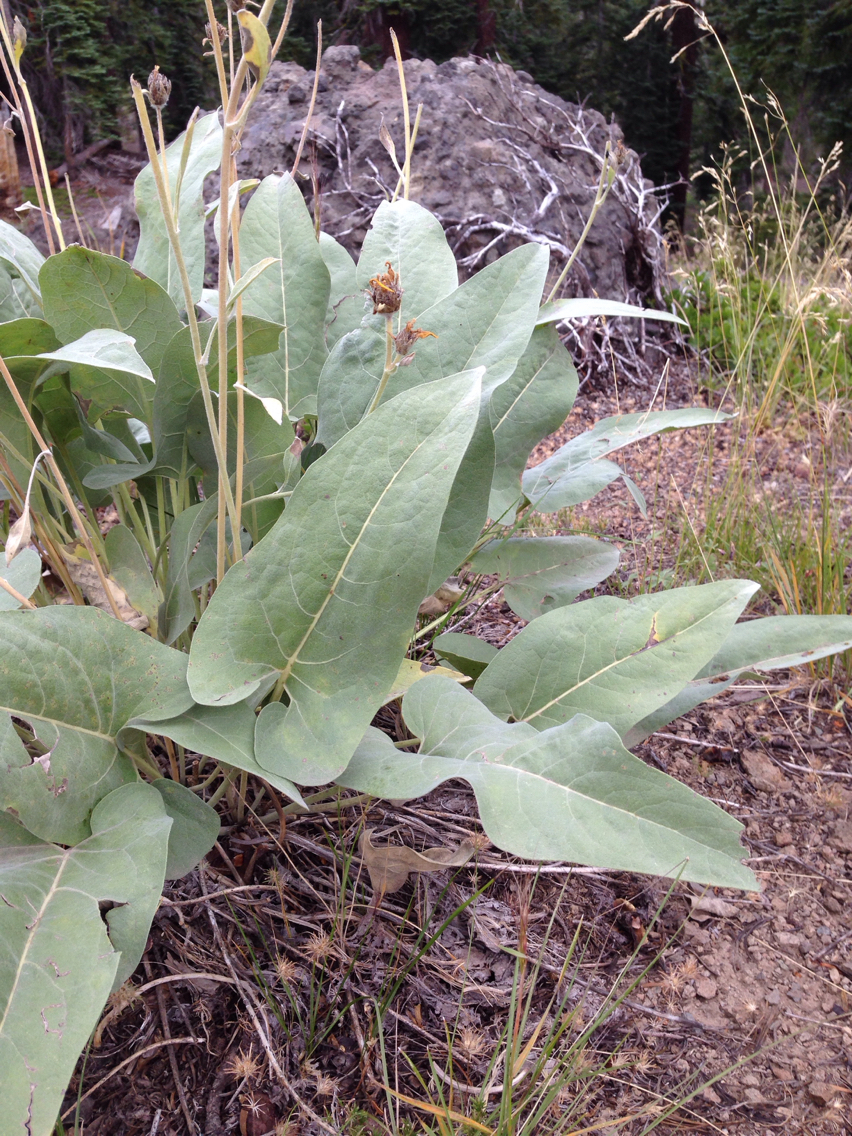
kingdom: Plantae
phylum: Tracheophyta
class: Magnoliopsida
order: Asterales
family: Asteraceae
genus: Wyethia
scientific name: Wyethia sagittata
